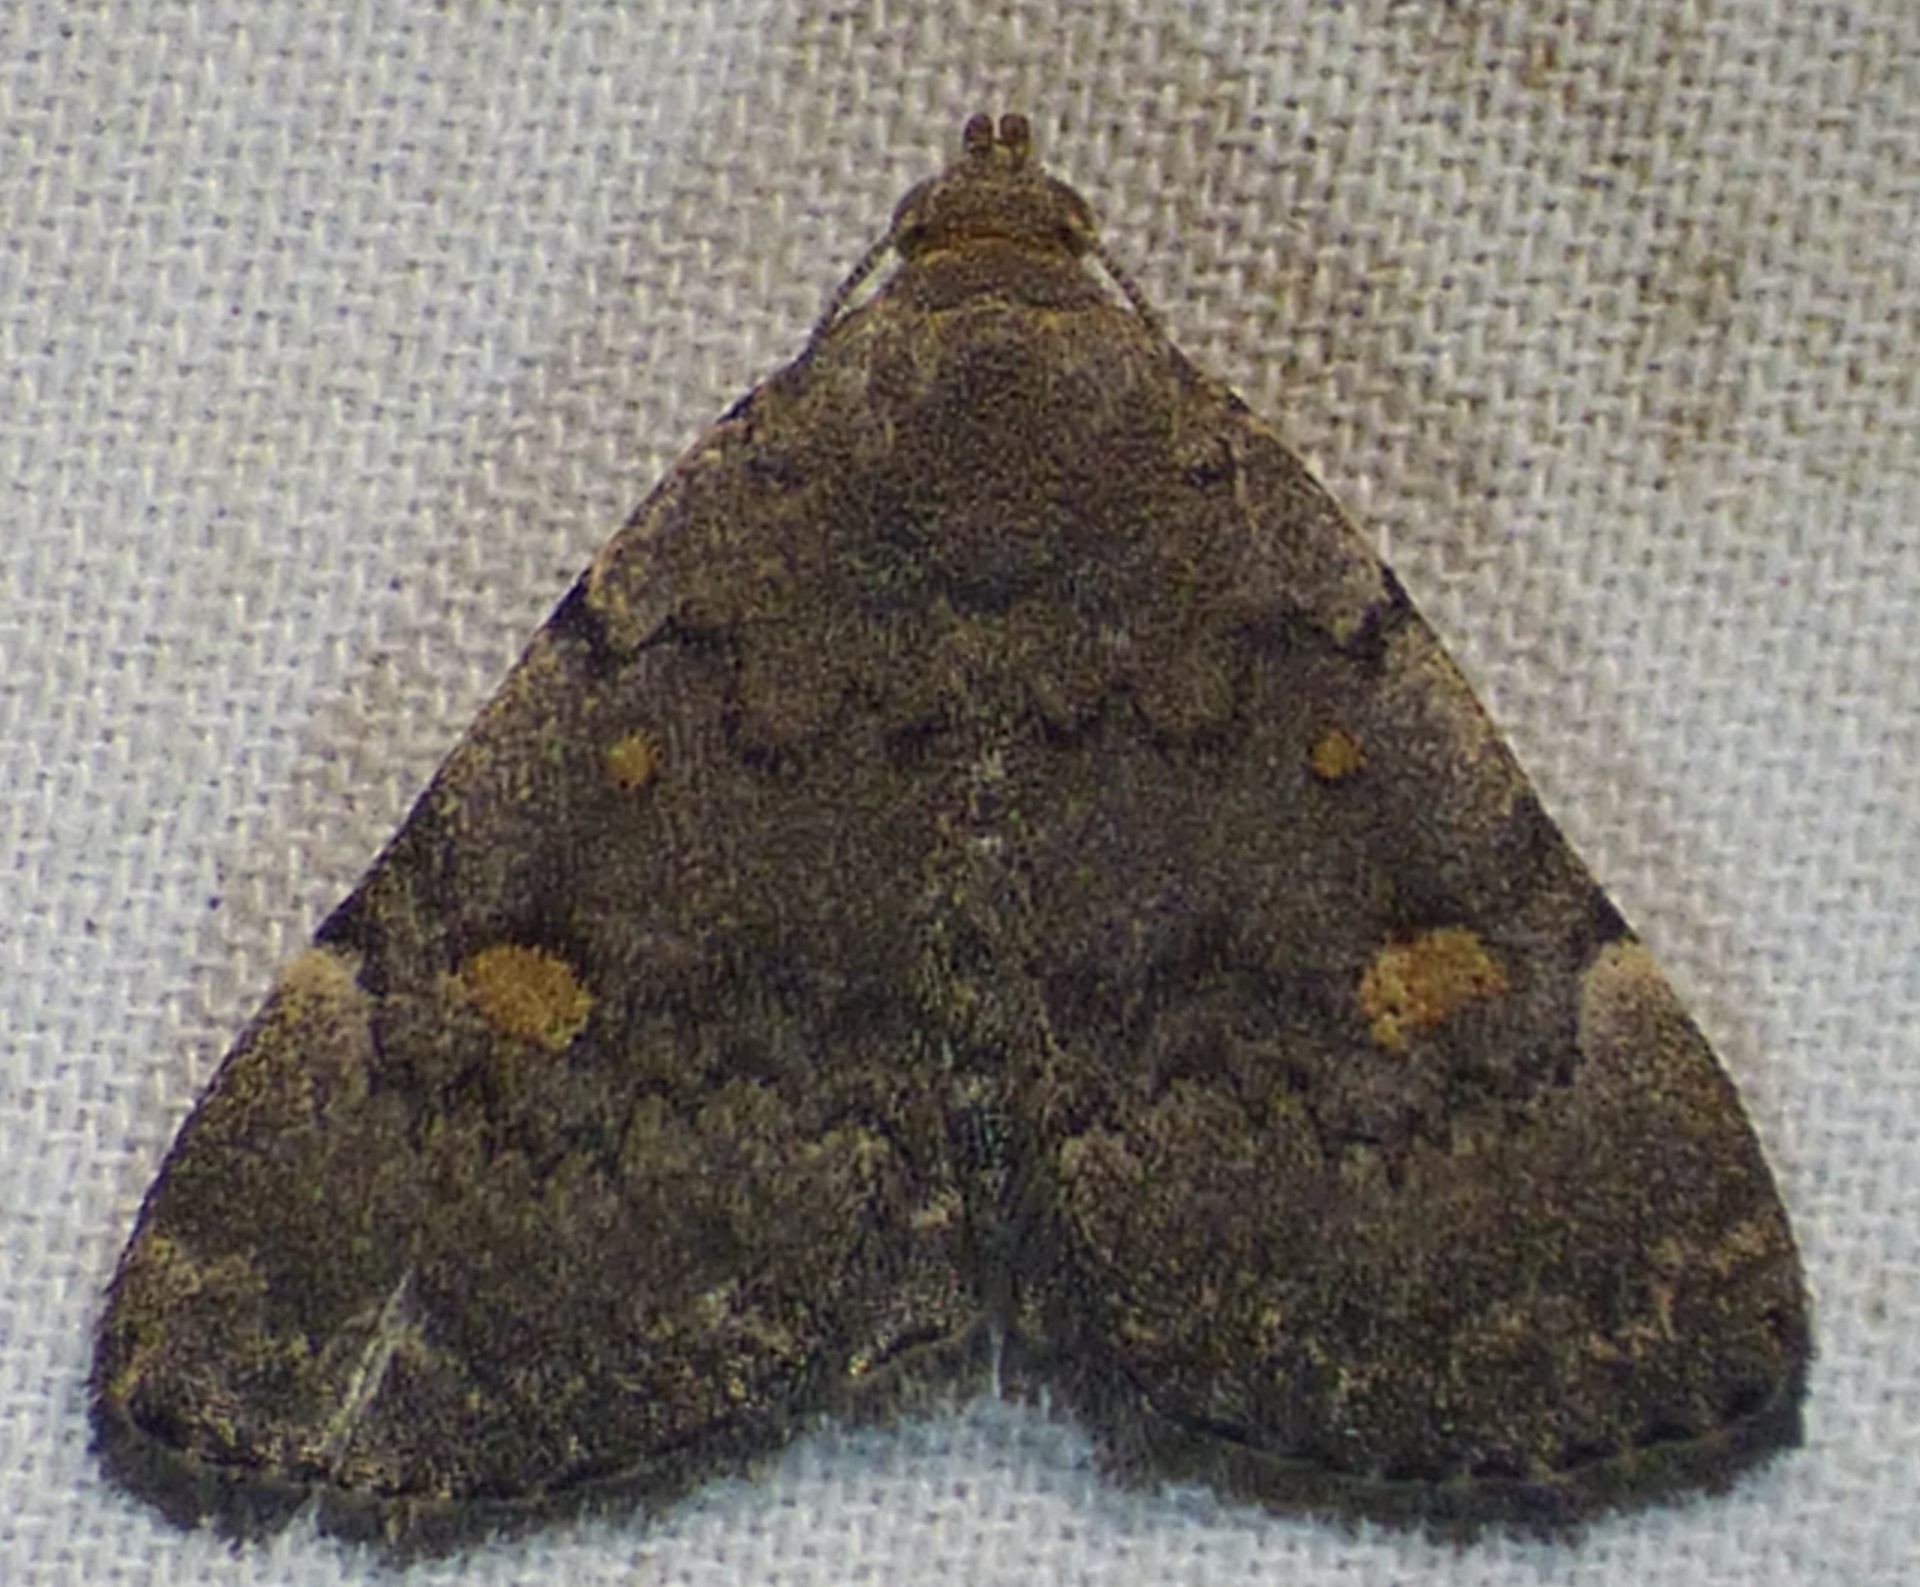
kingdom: Animalia
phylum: Arthropoda
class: Insecta
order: Lepidoptera
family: Erebidae
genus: Idia
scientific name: Idia aemula
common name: Common idia moth
